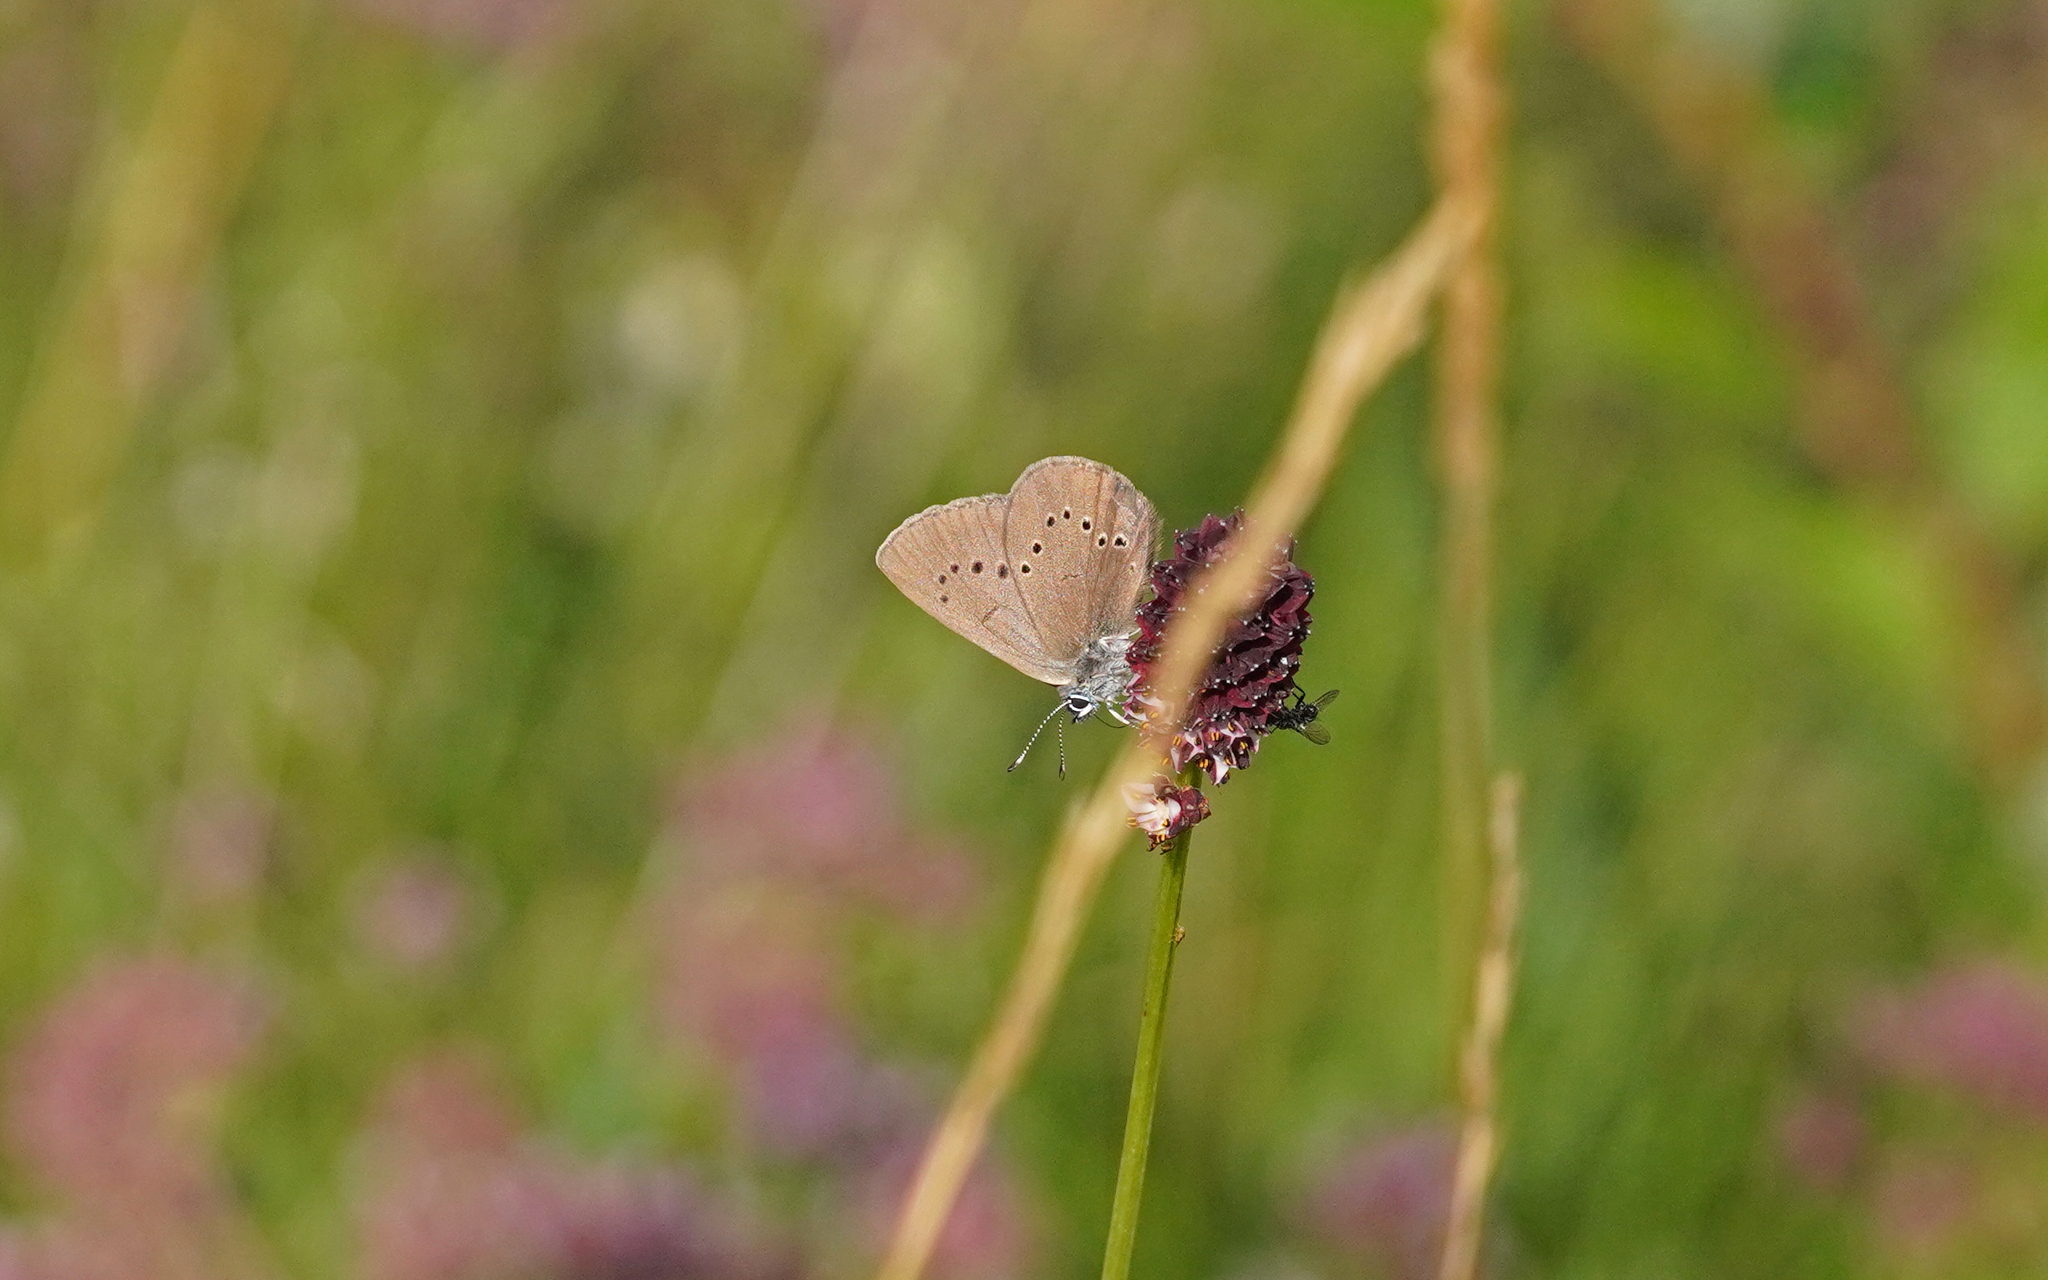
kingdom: Animalia
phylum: Arthropoda
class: Insecta
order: Lepidoptera
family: Lycaenidae
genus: Maculinea
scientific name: Maculinea nausithous
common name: Dusky large blue
